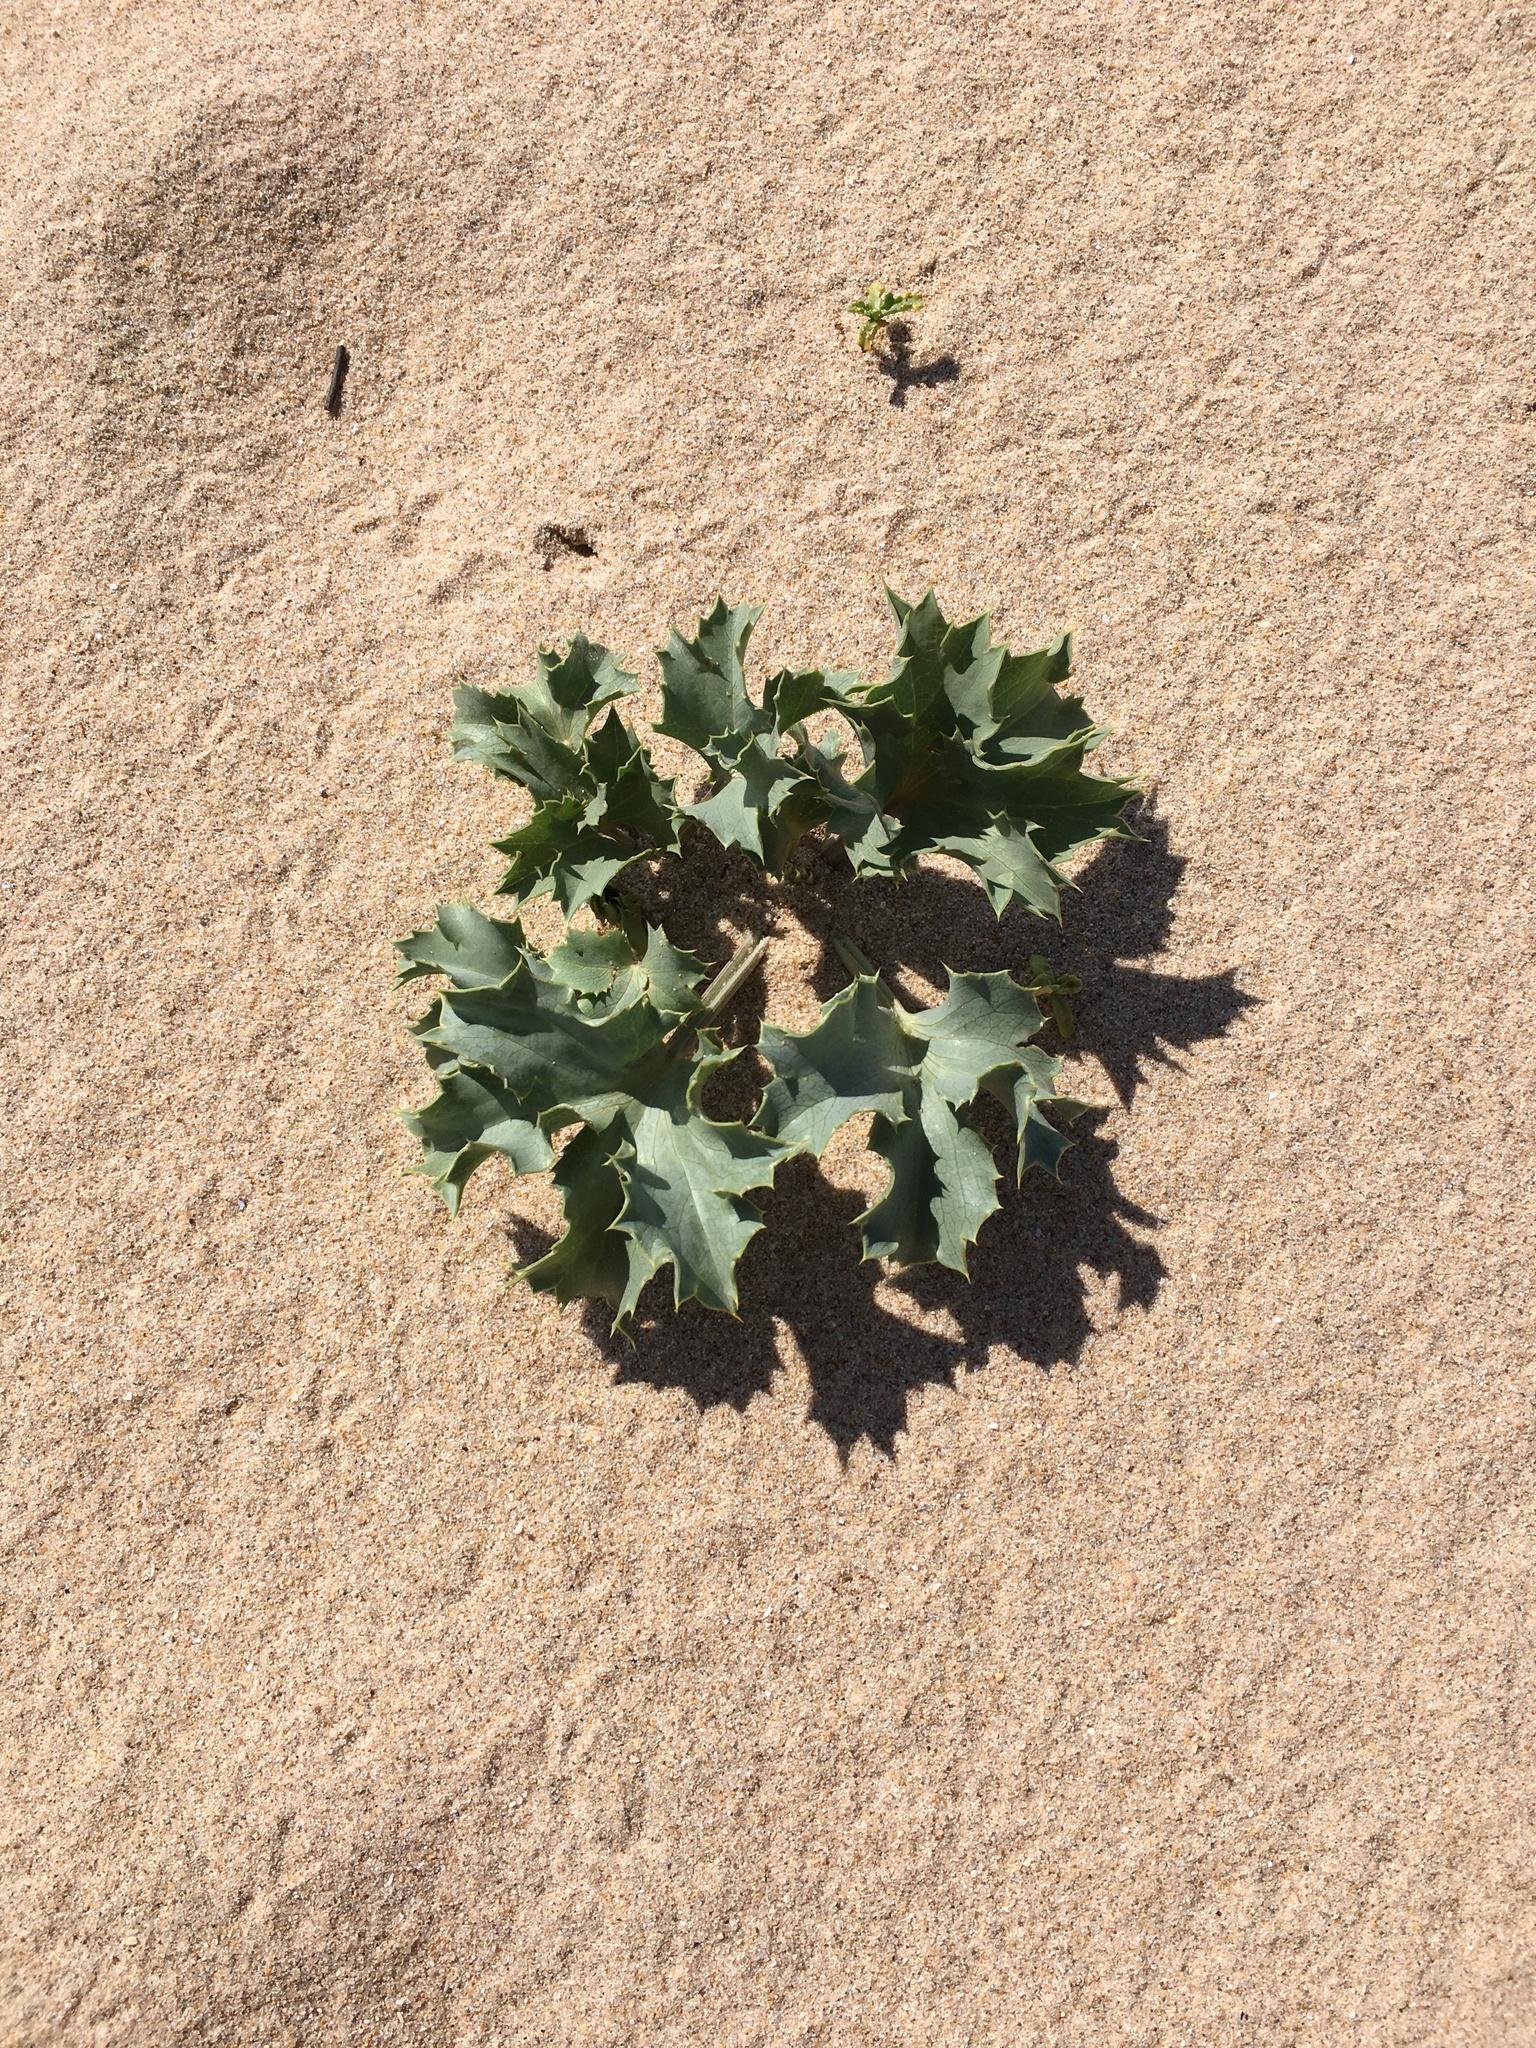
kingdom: Plantae
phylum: Tracheophyta
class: Magnoliopsida
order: Apiales
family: Apiaceae
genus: Eryngium
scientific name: Eryngium maritimum
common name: Sea-holly
